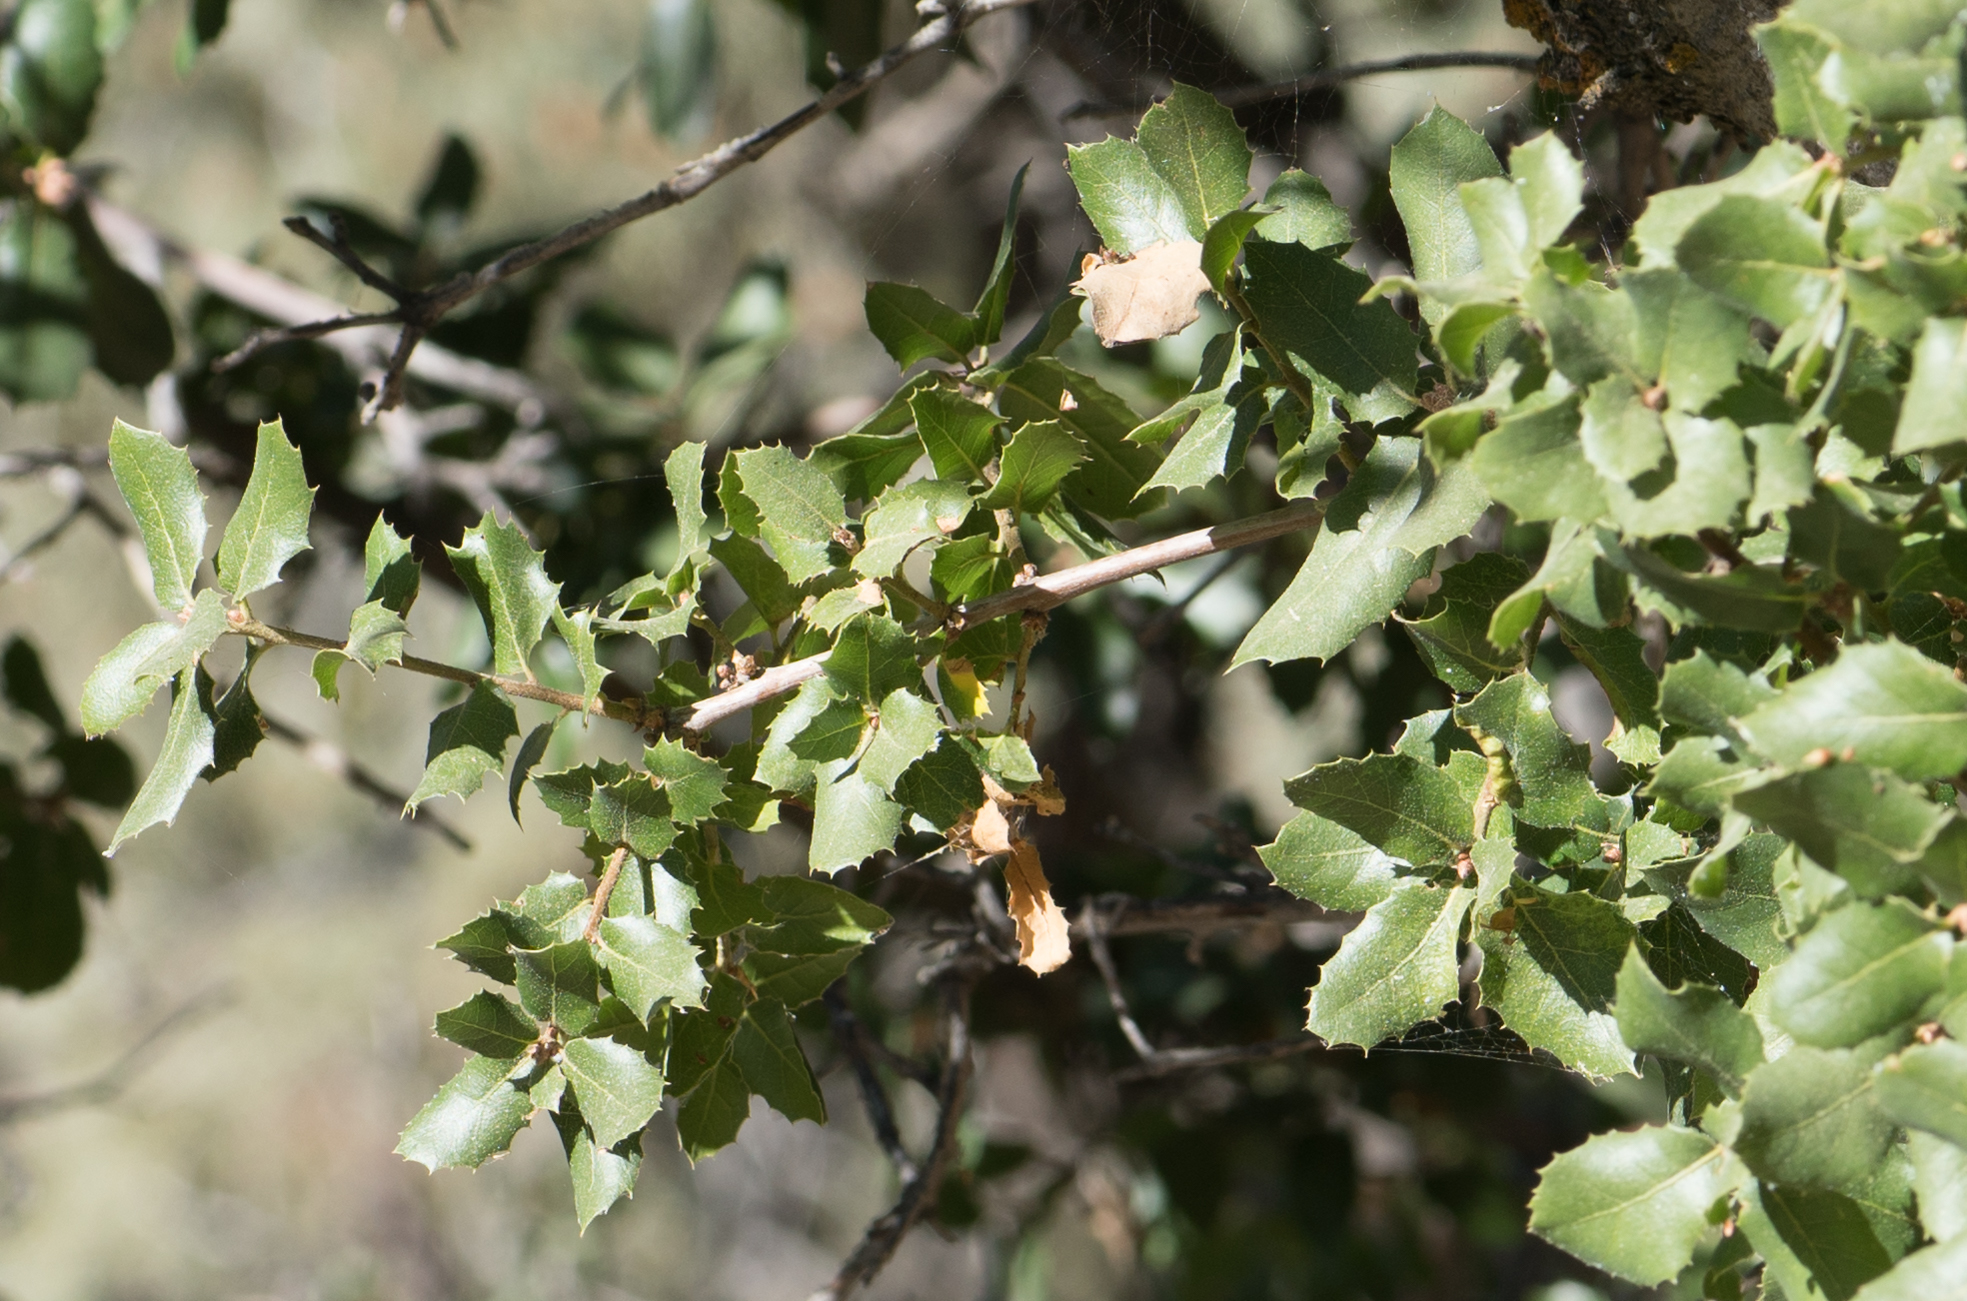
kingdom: Plantae
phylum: Tracheophyta
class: Magnoliopsida
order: Fagales
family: Fagaceae
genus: Quercus
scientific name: Quercus wislizeni
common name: Interior live oak
